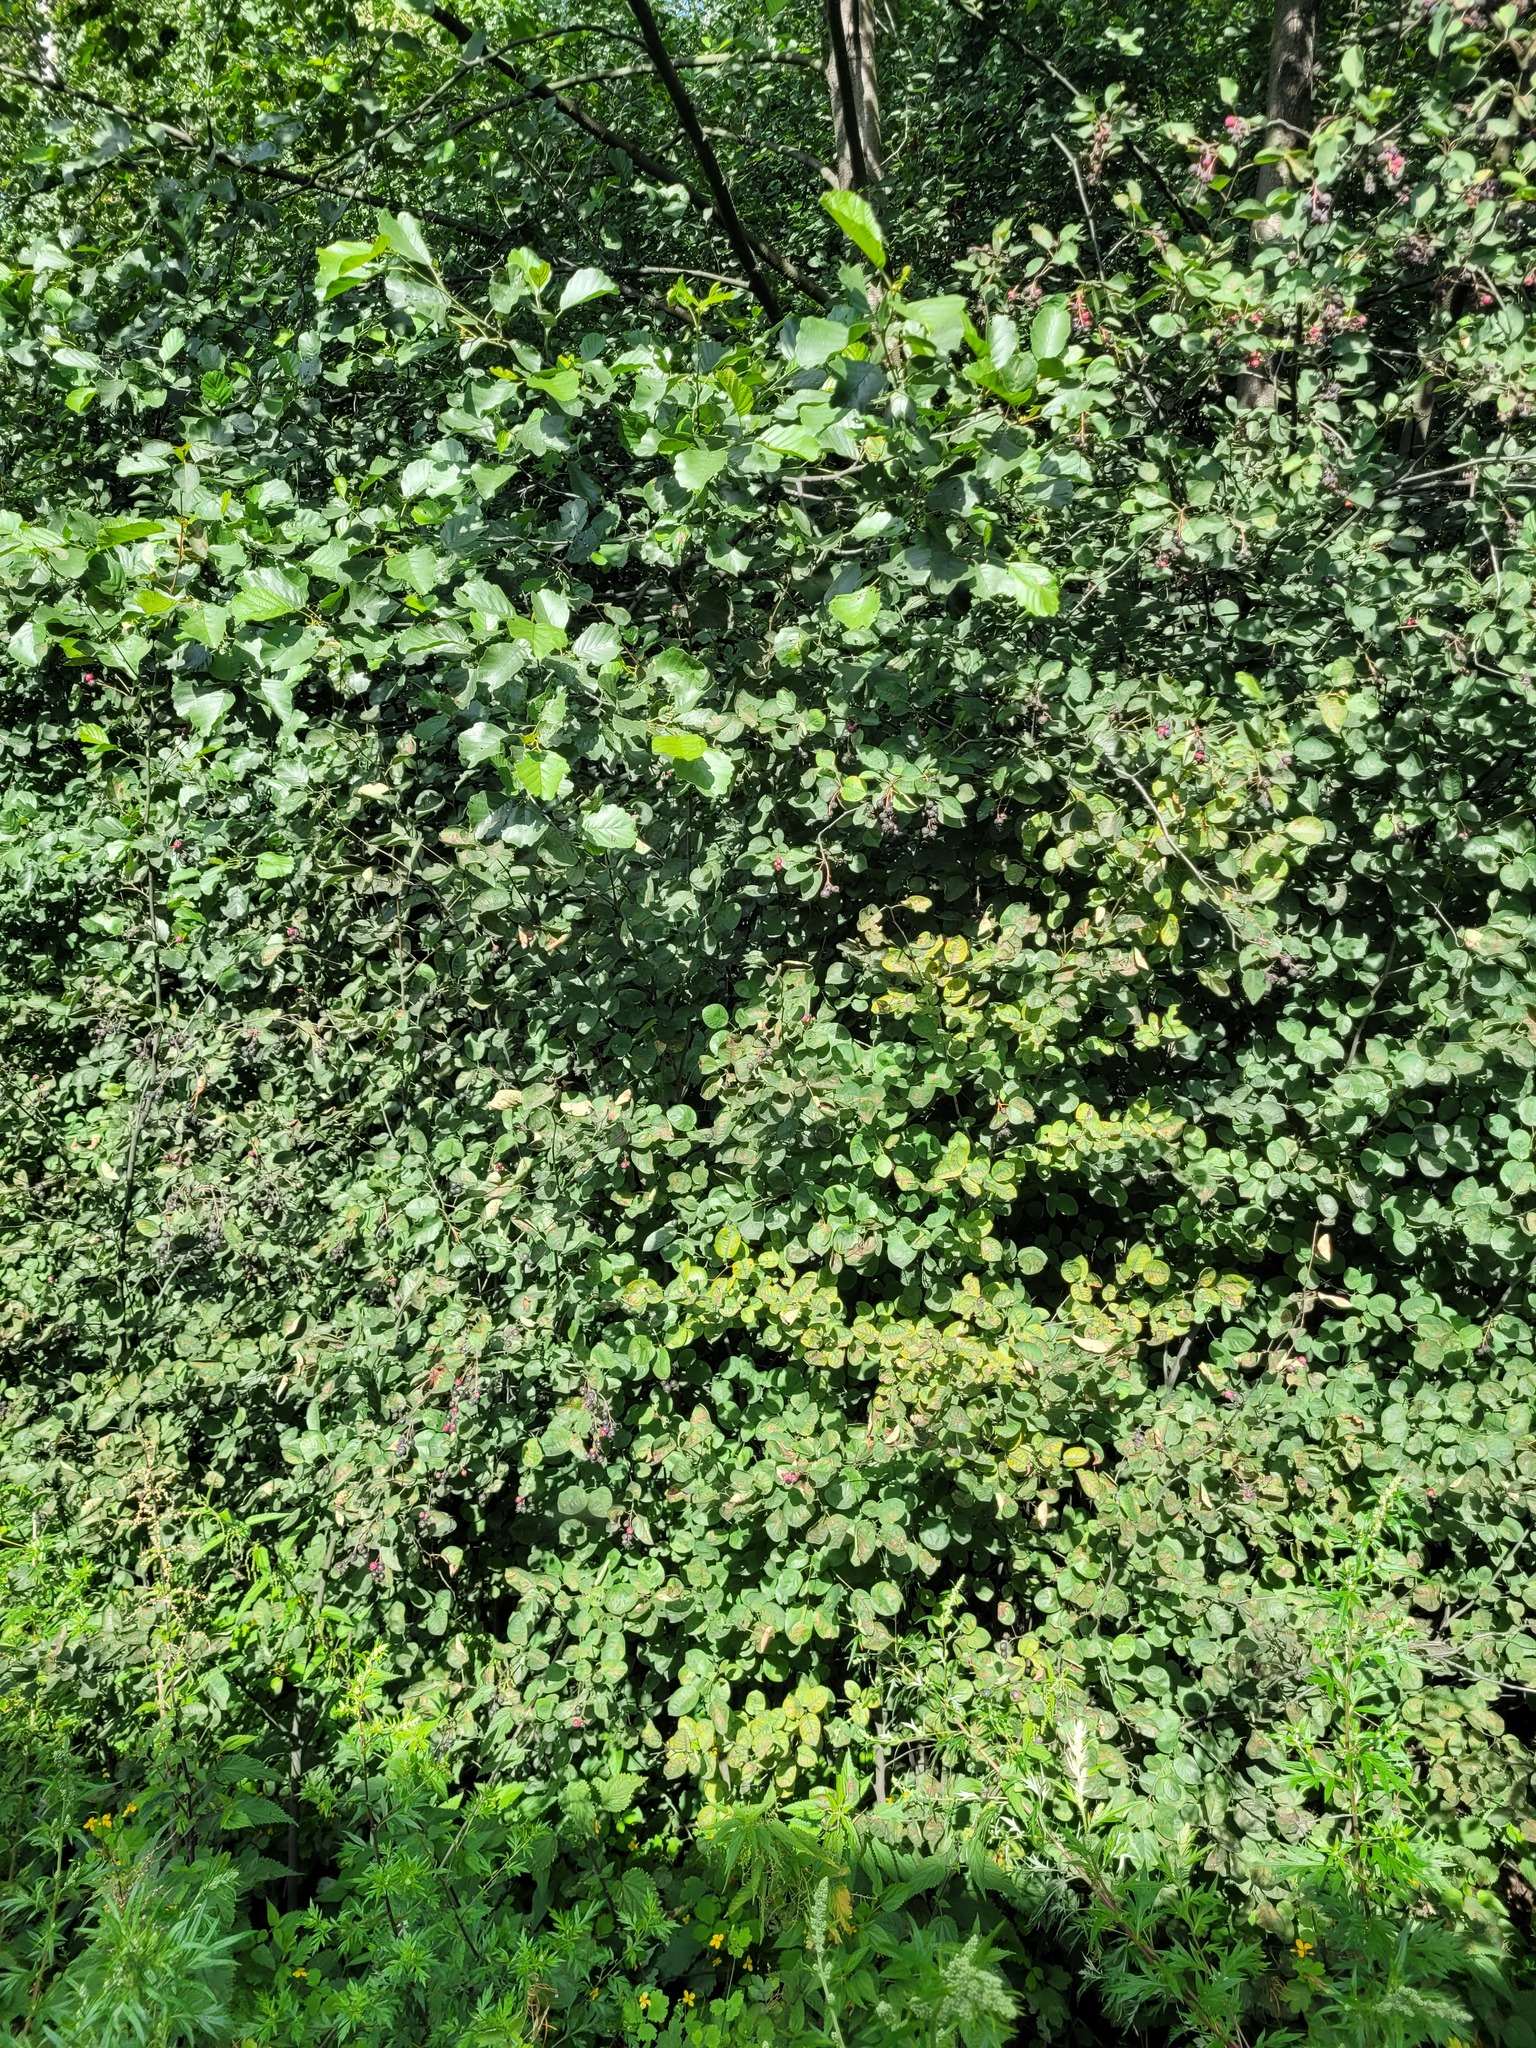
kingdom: Plantae
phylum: Tracheophyta
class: Magnoliopsida
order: Rosales
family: Rosaceae
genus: Amelanchier
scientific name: Amelanchier
